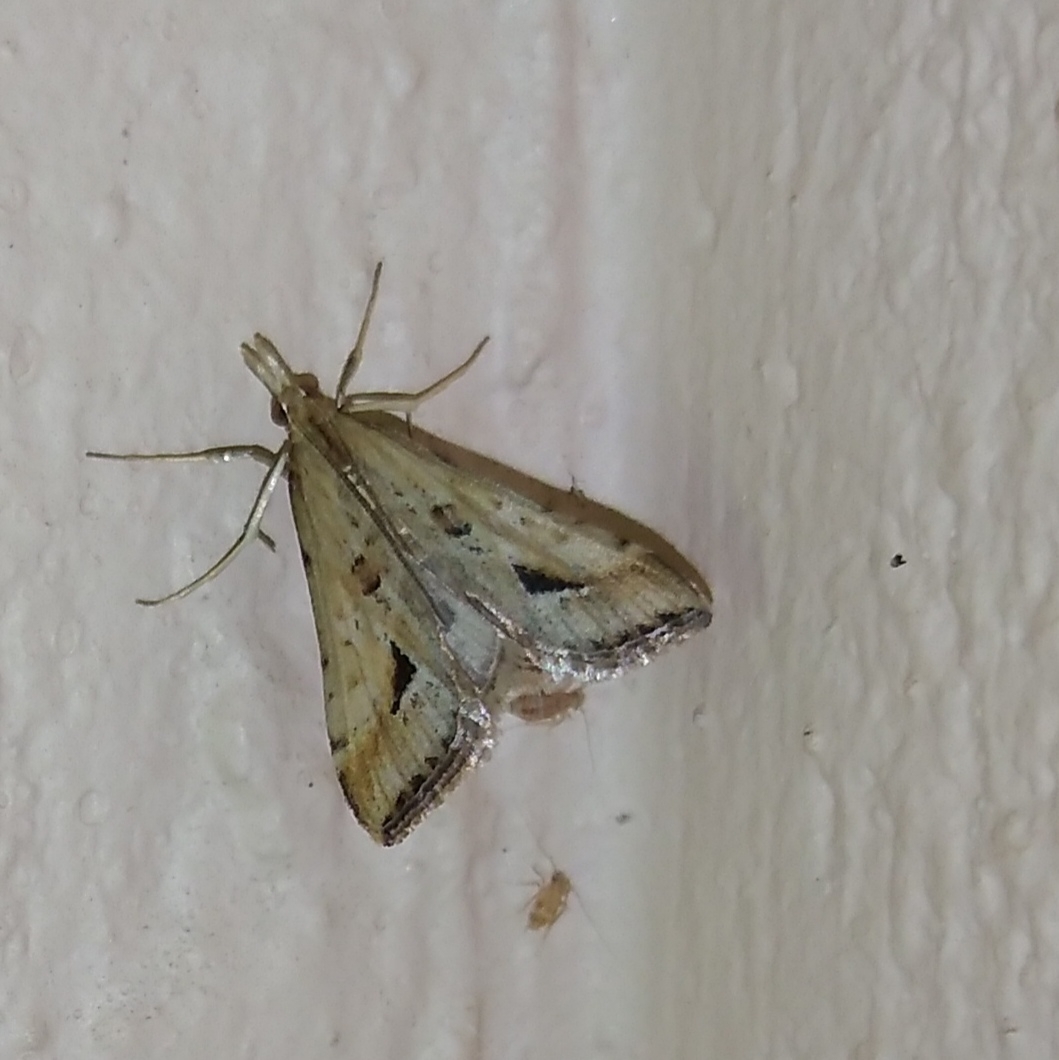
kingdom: Animalia
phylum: Arthropoda
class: Insecta
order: Lepidoptera
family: Crambidae
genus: Diasemia
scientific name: Diasemia monostigma
